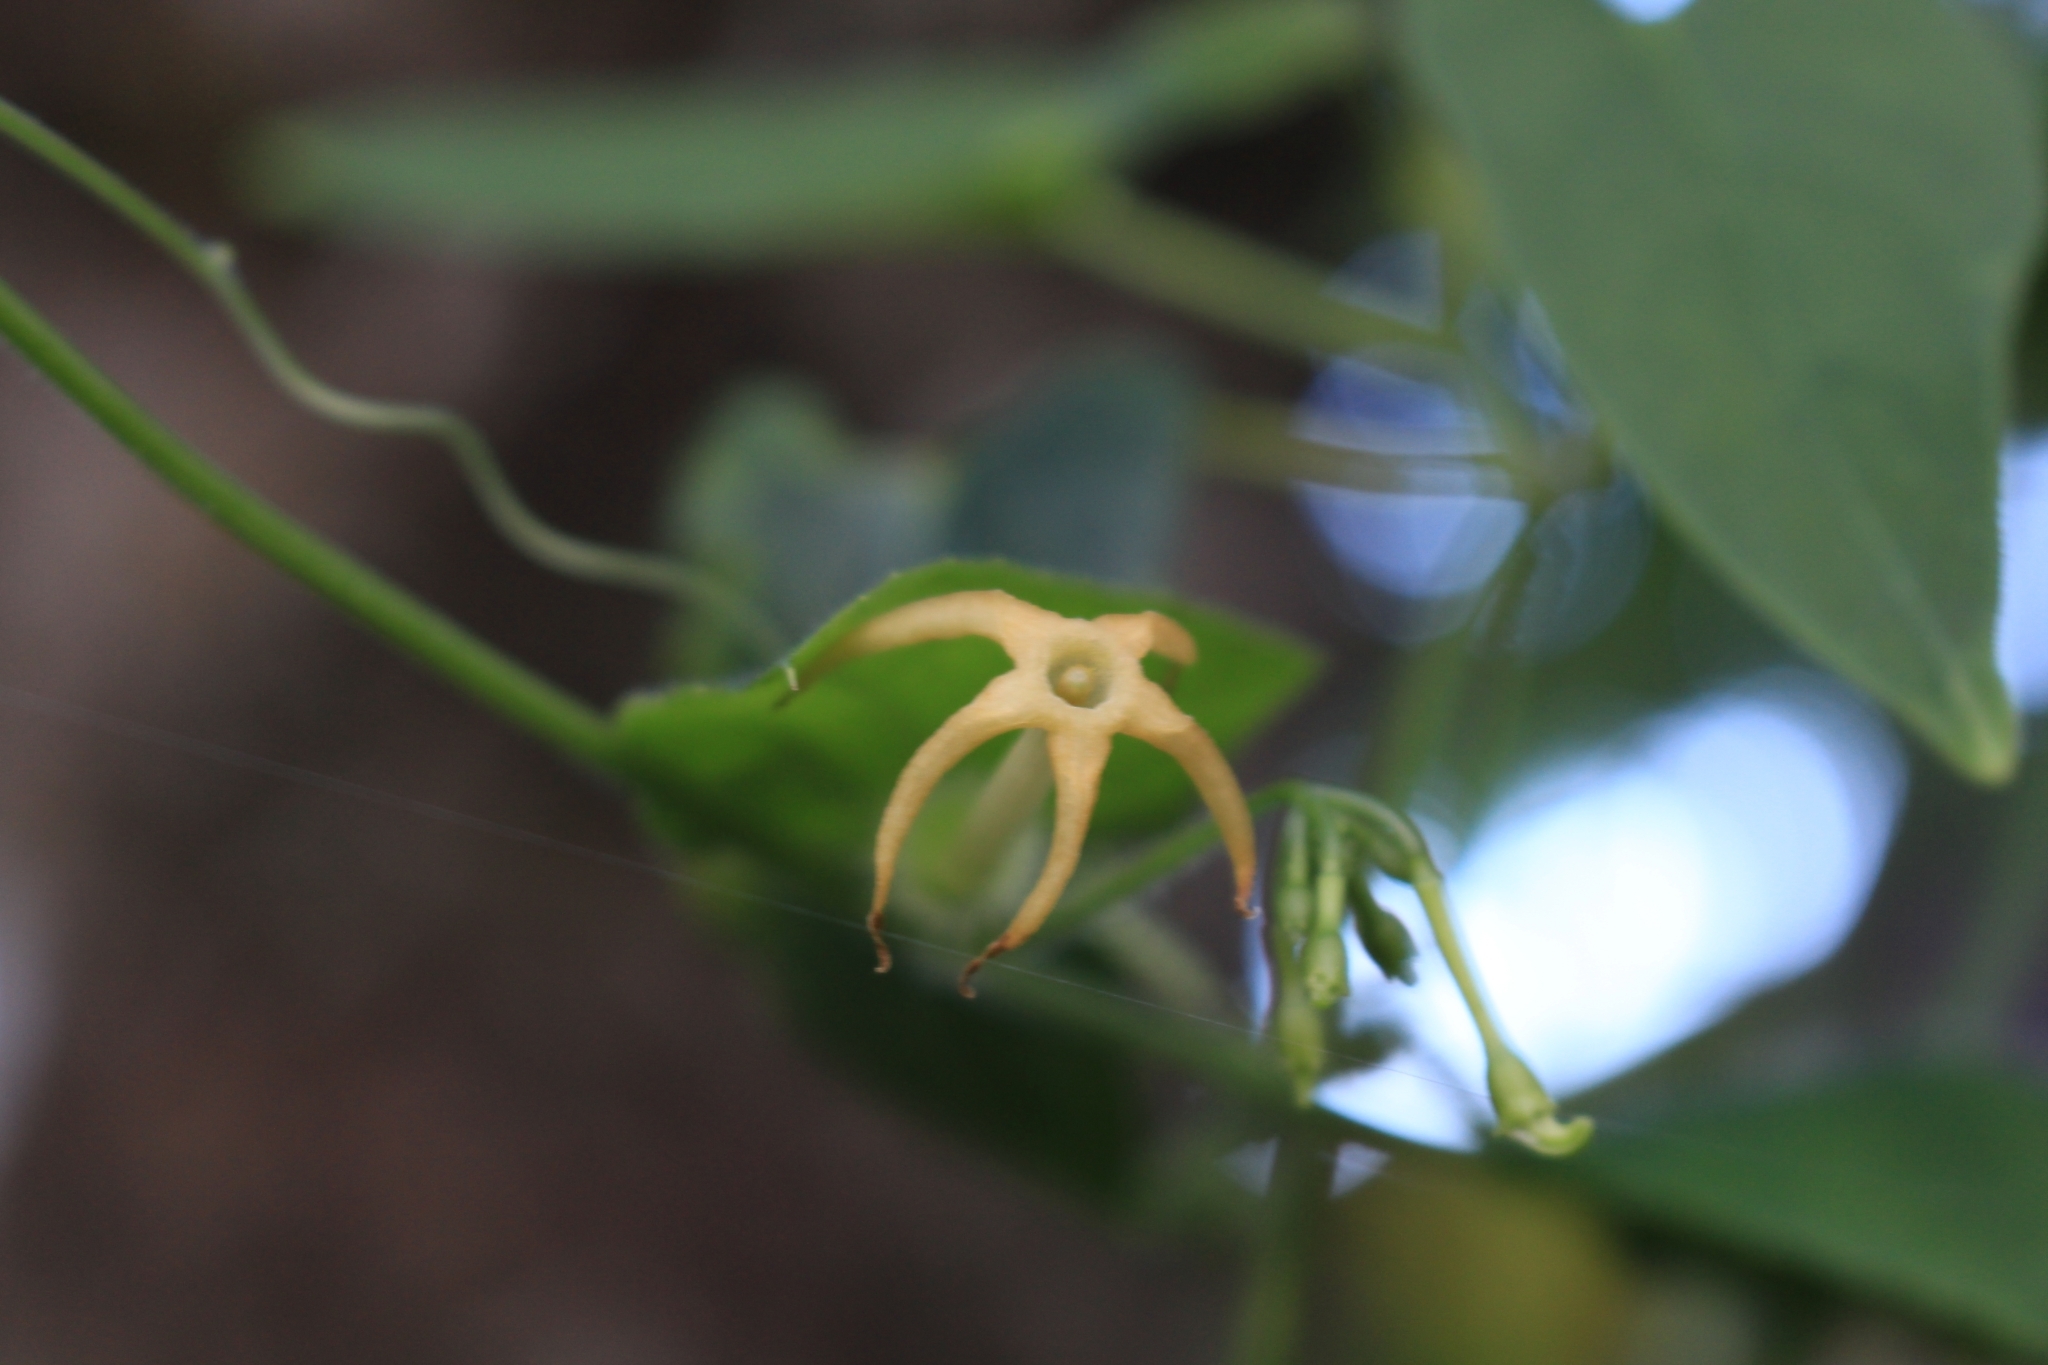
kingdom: Plantae
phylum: Tracheophyta
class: Magnoliopsida
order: Cucurbitales
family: Cucurbitaceae
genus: Cyclanthera
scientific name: Cyclanthera carthagenensis
